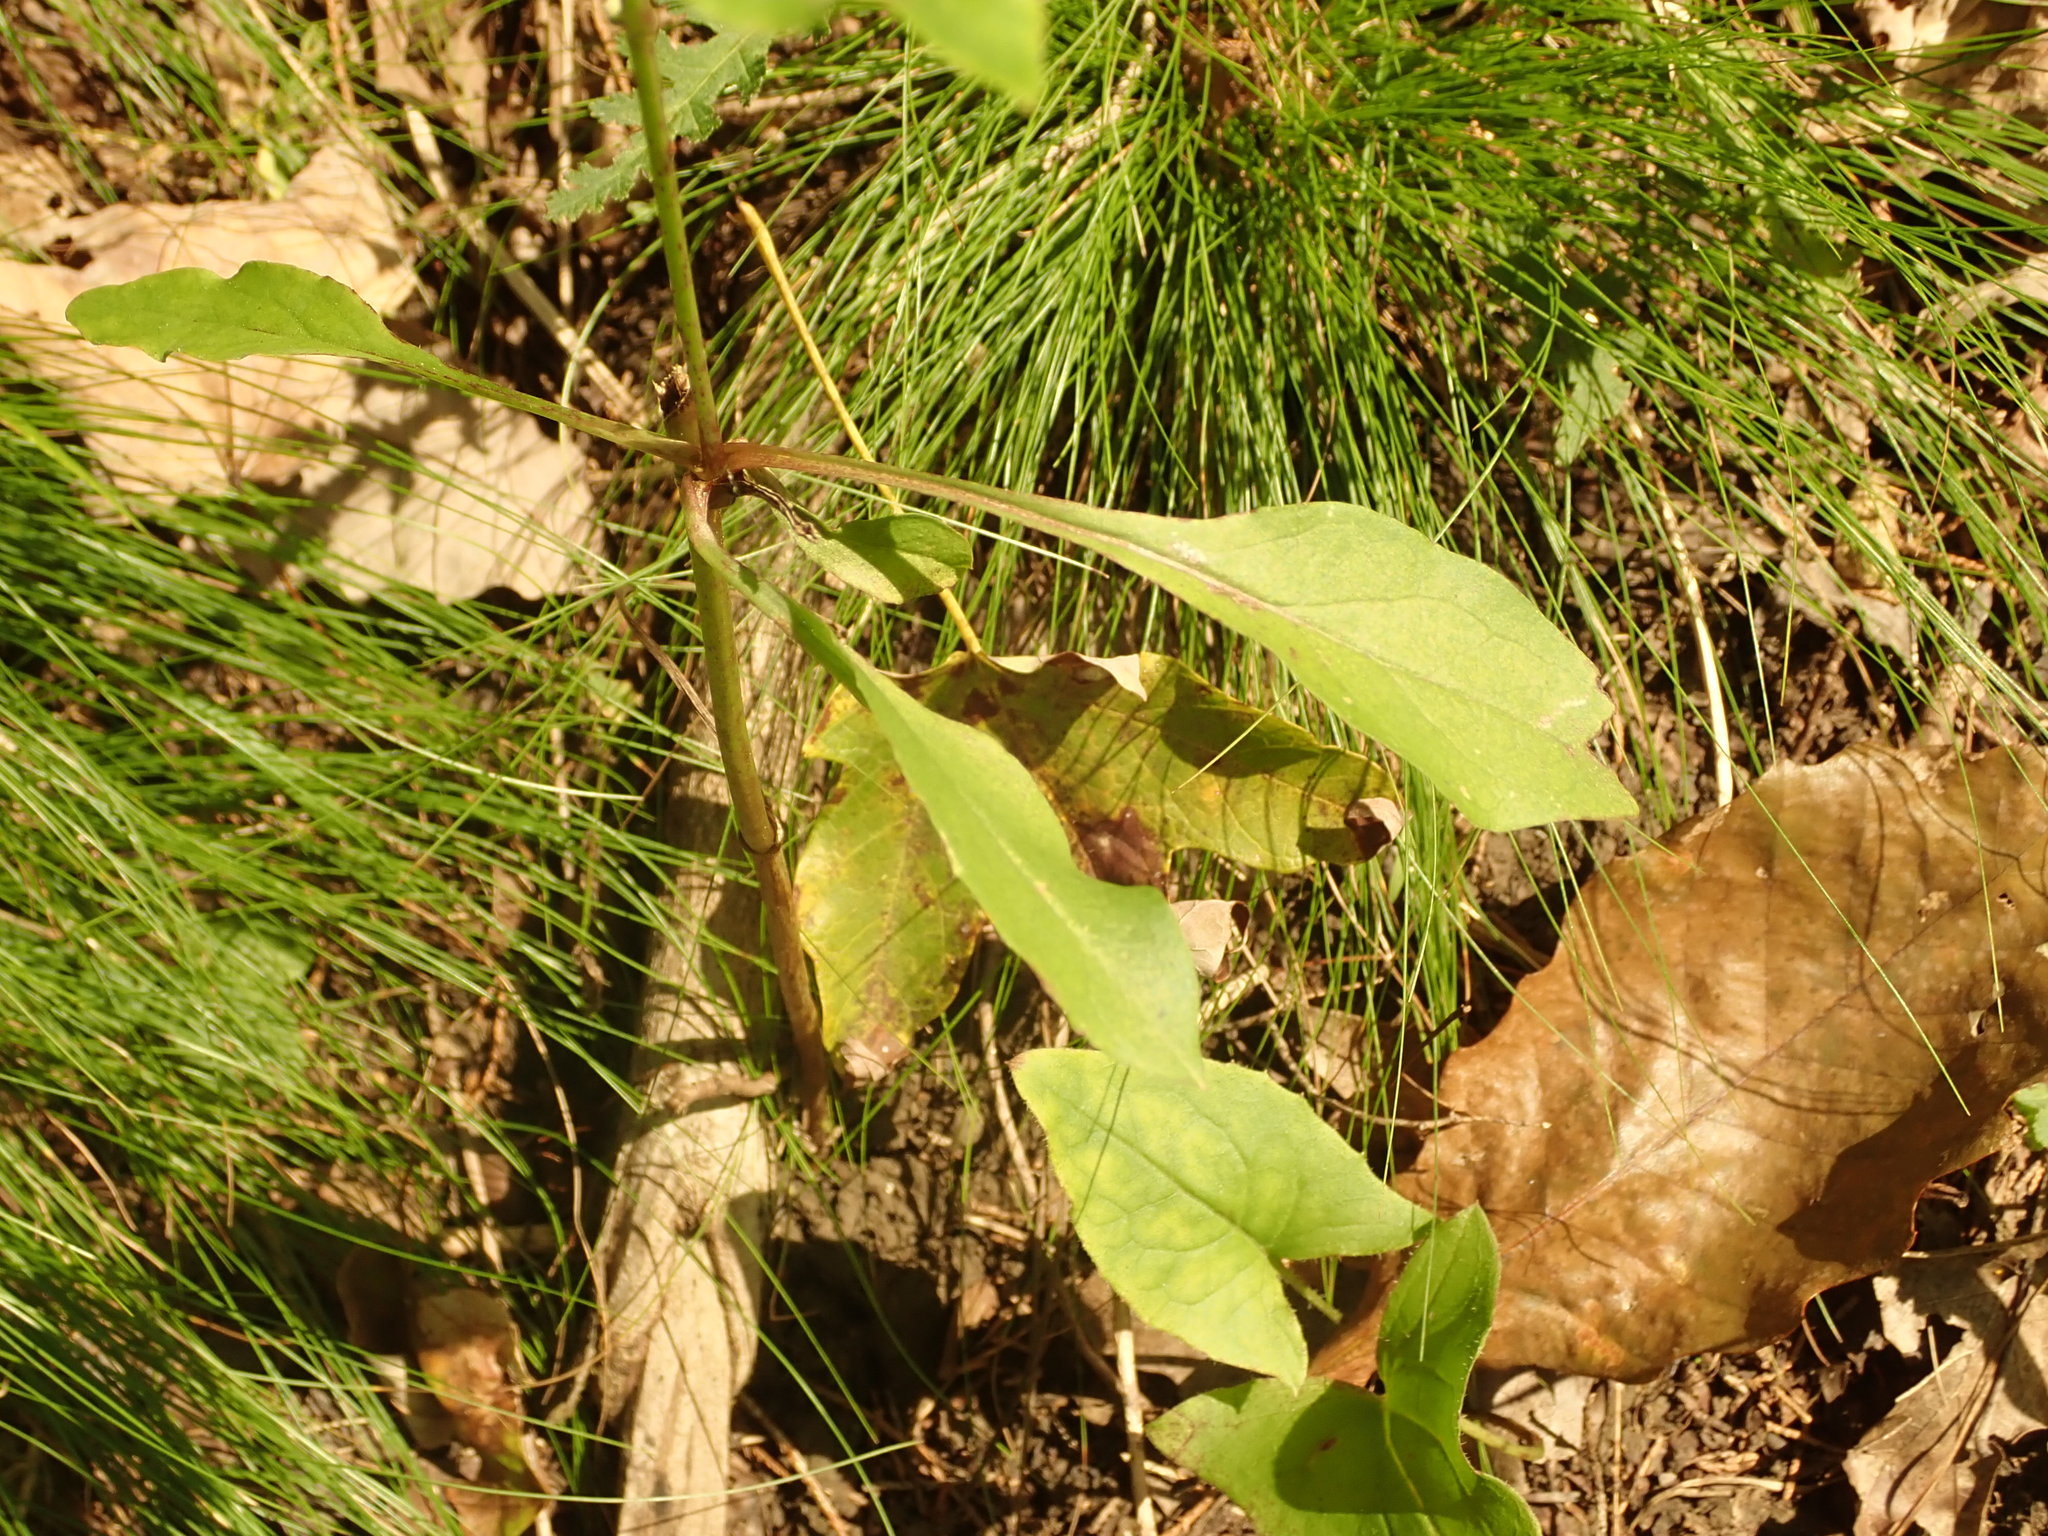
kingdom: Plantae
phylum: Tracheophyta
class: Magnoliopsida
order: Asterales
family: Asteraceae
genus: Nabalus
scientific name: Nabalus altissima
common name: Tall rattlesnakeroot
